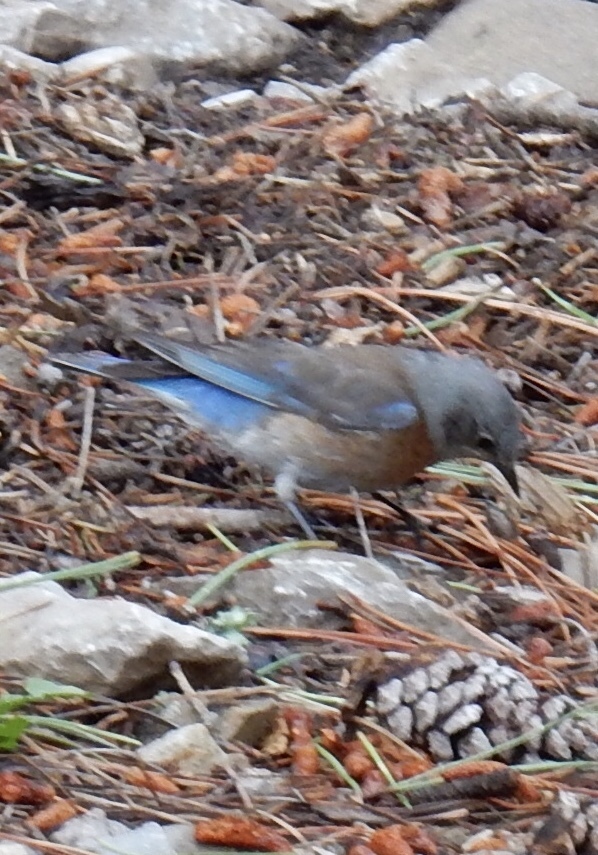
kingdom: Animalia
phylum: Chordata
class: Aves
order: Passeriformes
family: Turdidae
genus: Sialia
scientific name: Sialia mexicana
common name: Western bluebird
